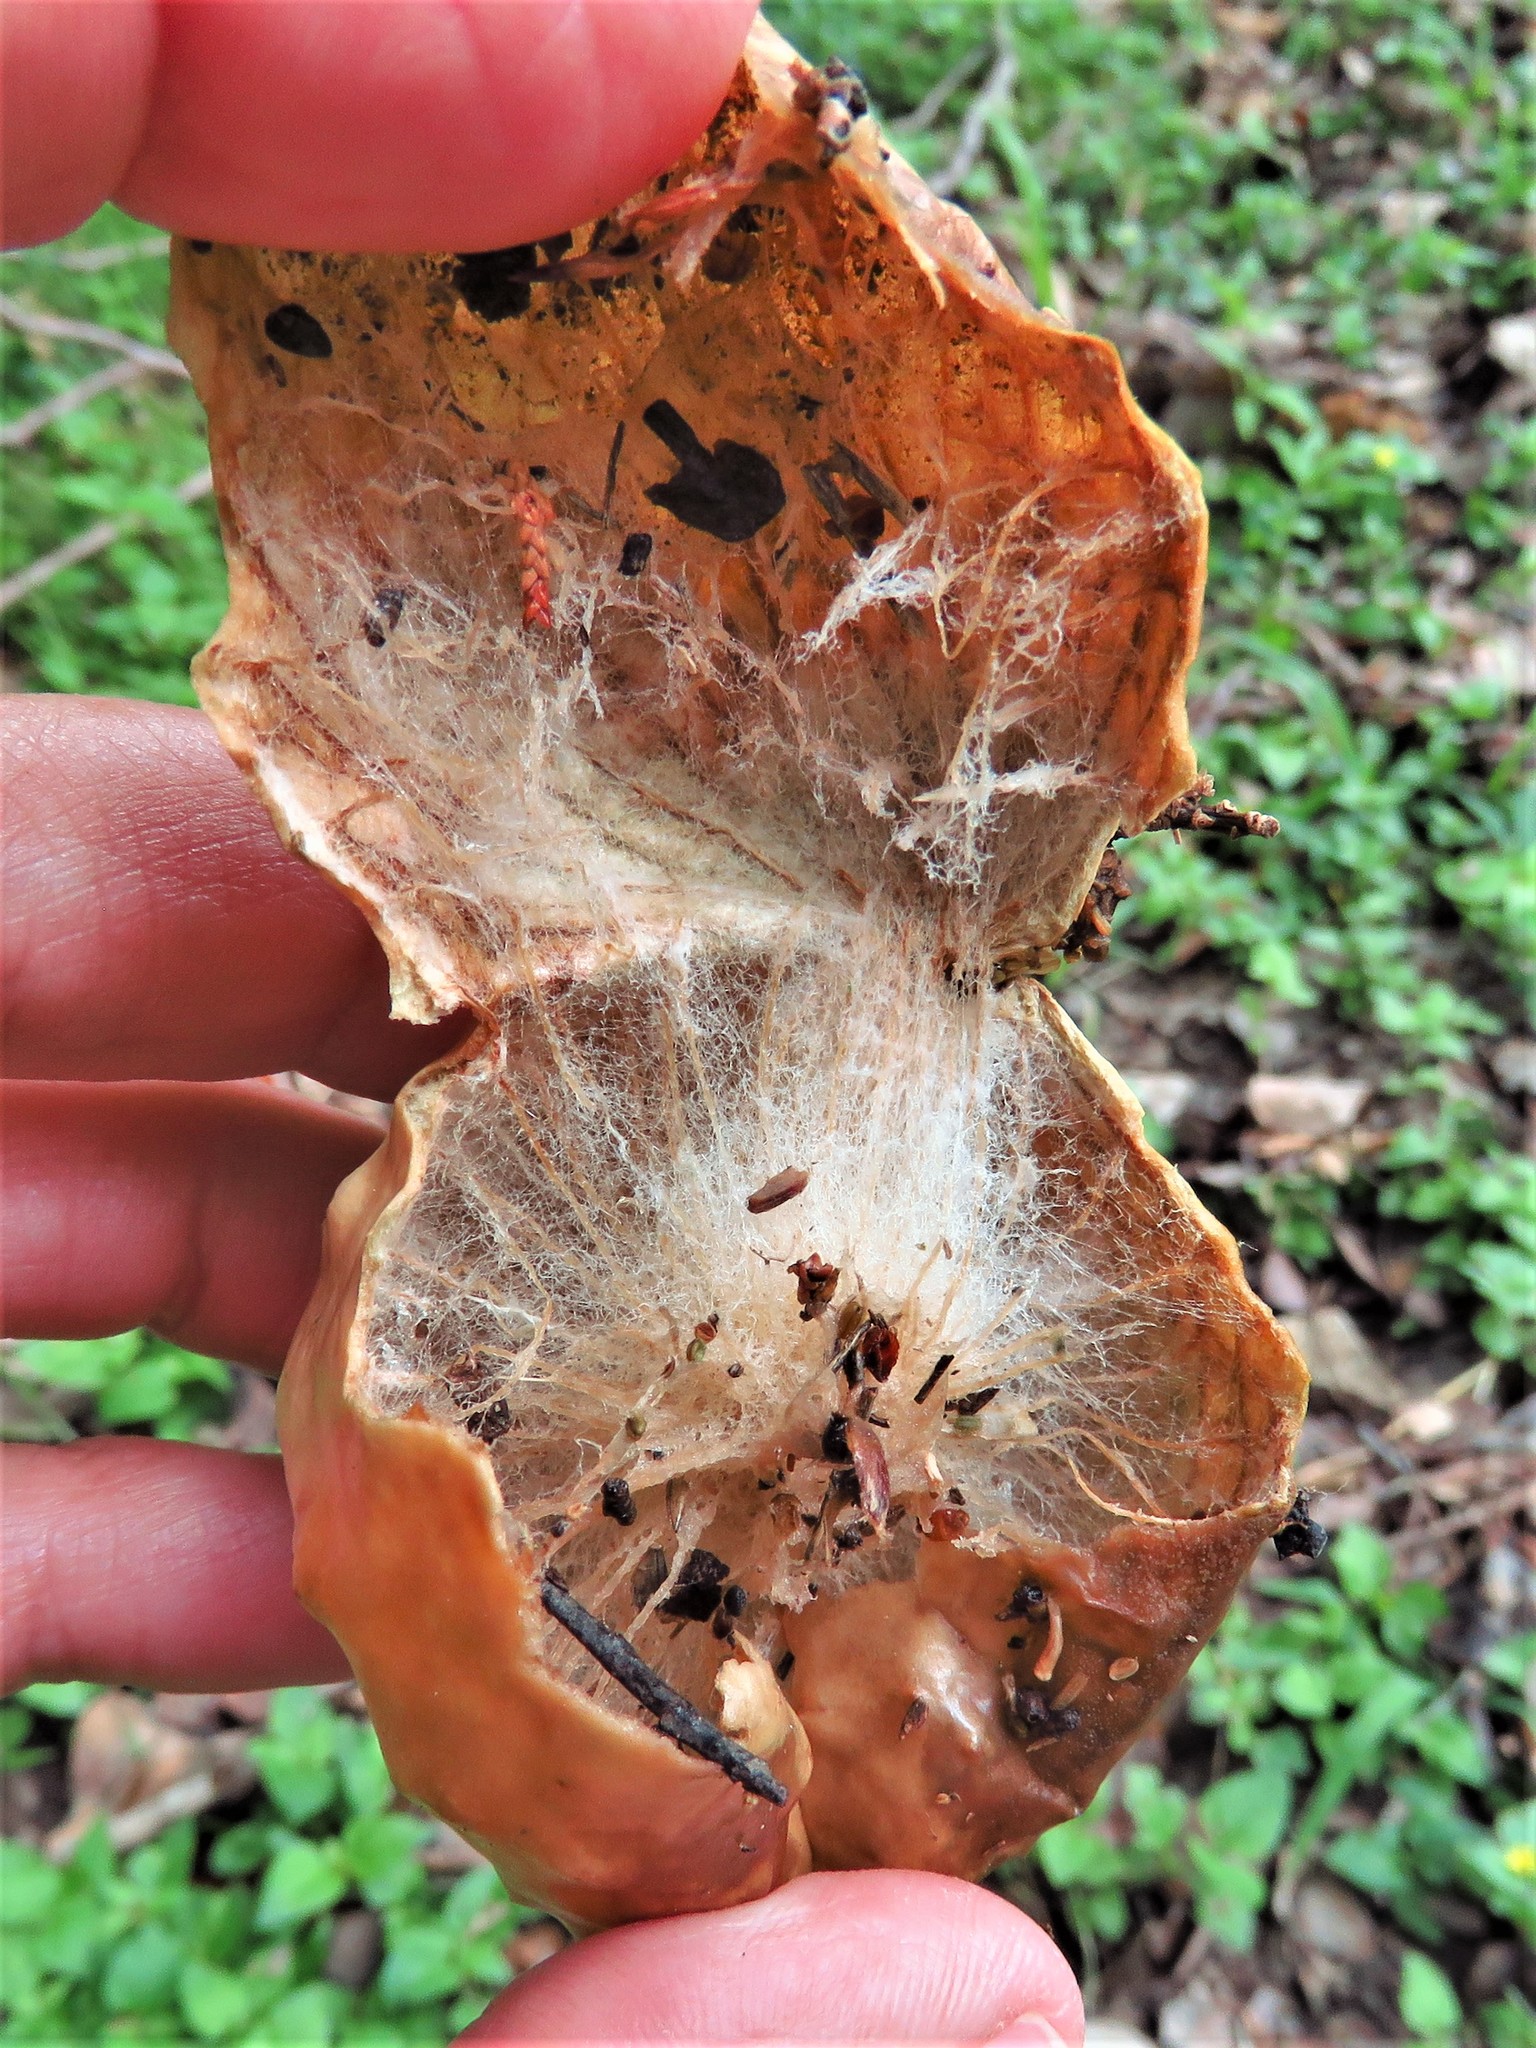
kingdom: Animalia
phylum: Arthropoda
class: Insecta
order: Hymenoptera
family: Cynipidae
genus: Amphibolips
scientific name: Amphibolips
